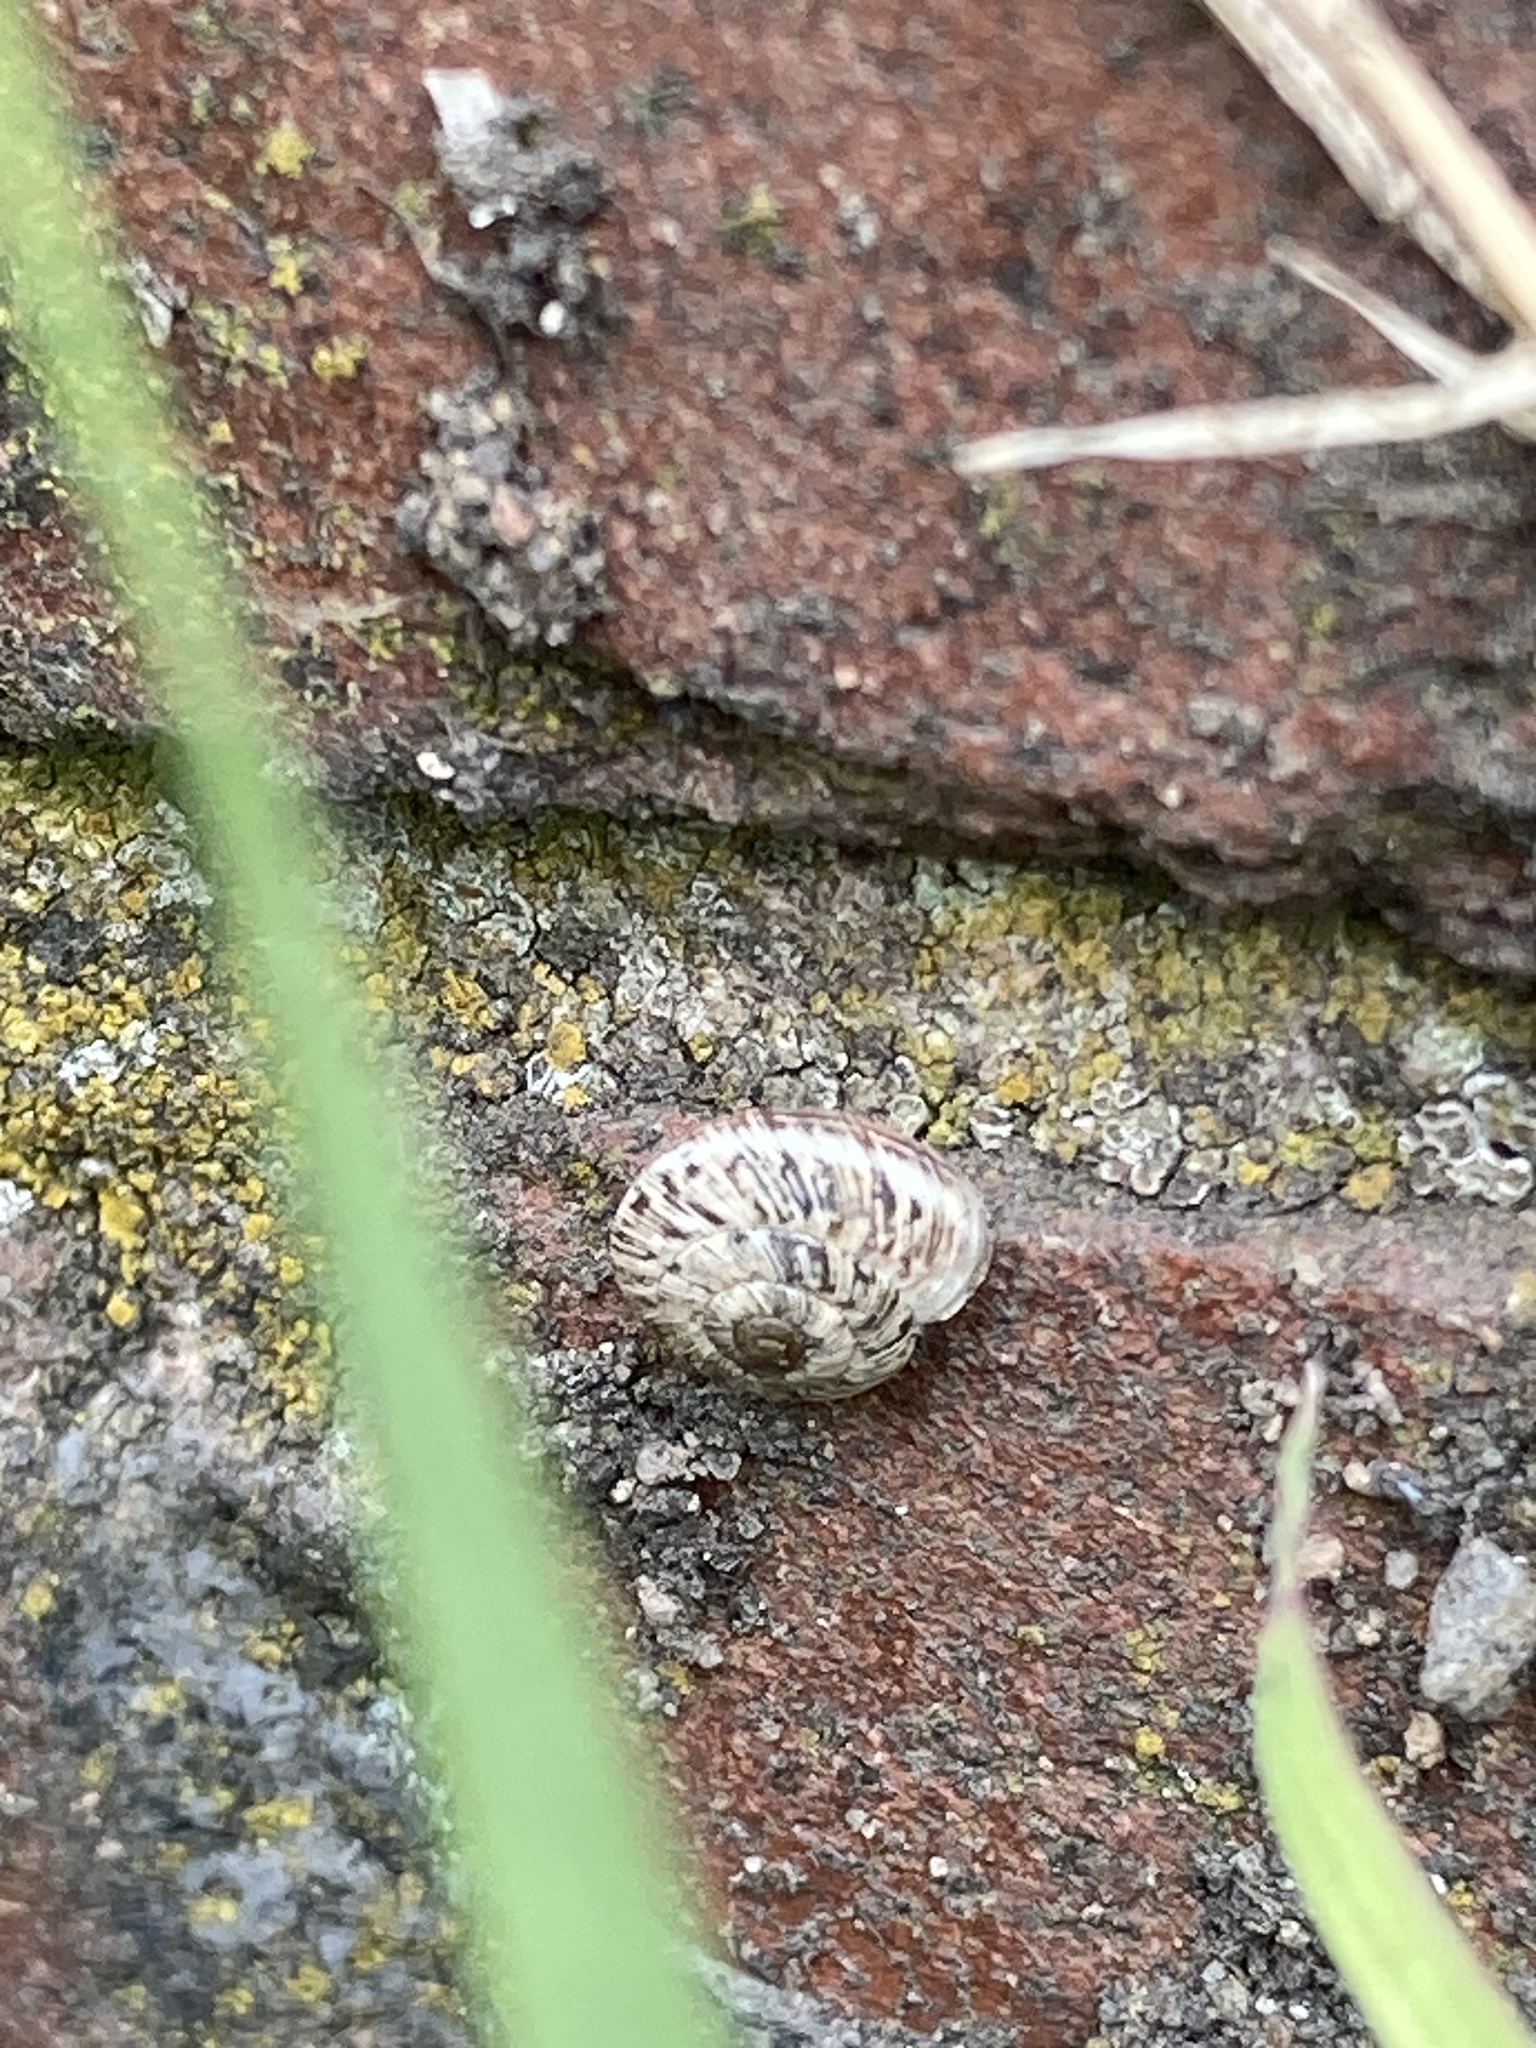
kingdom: Animalia
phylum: Mollusca
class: Gastropoda
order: Stylommatophora
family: Geomitridae
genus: Xeroplexa
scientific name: Xeroplexa intersecta
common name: Wrinkled snail
